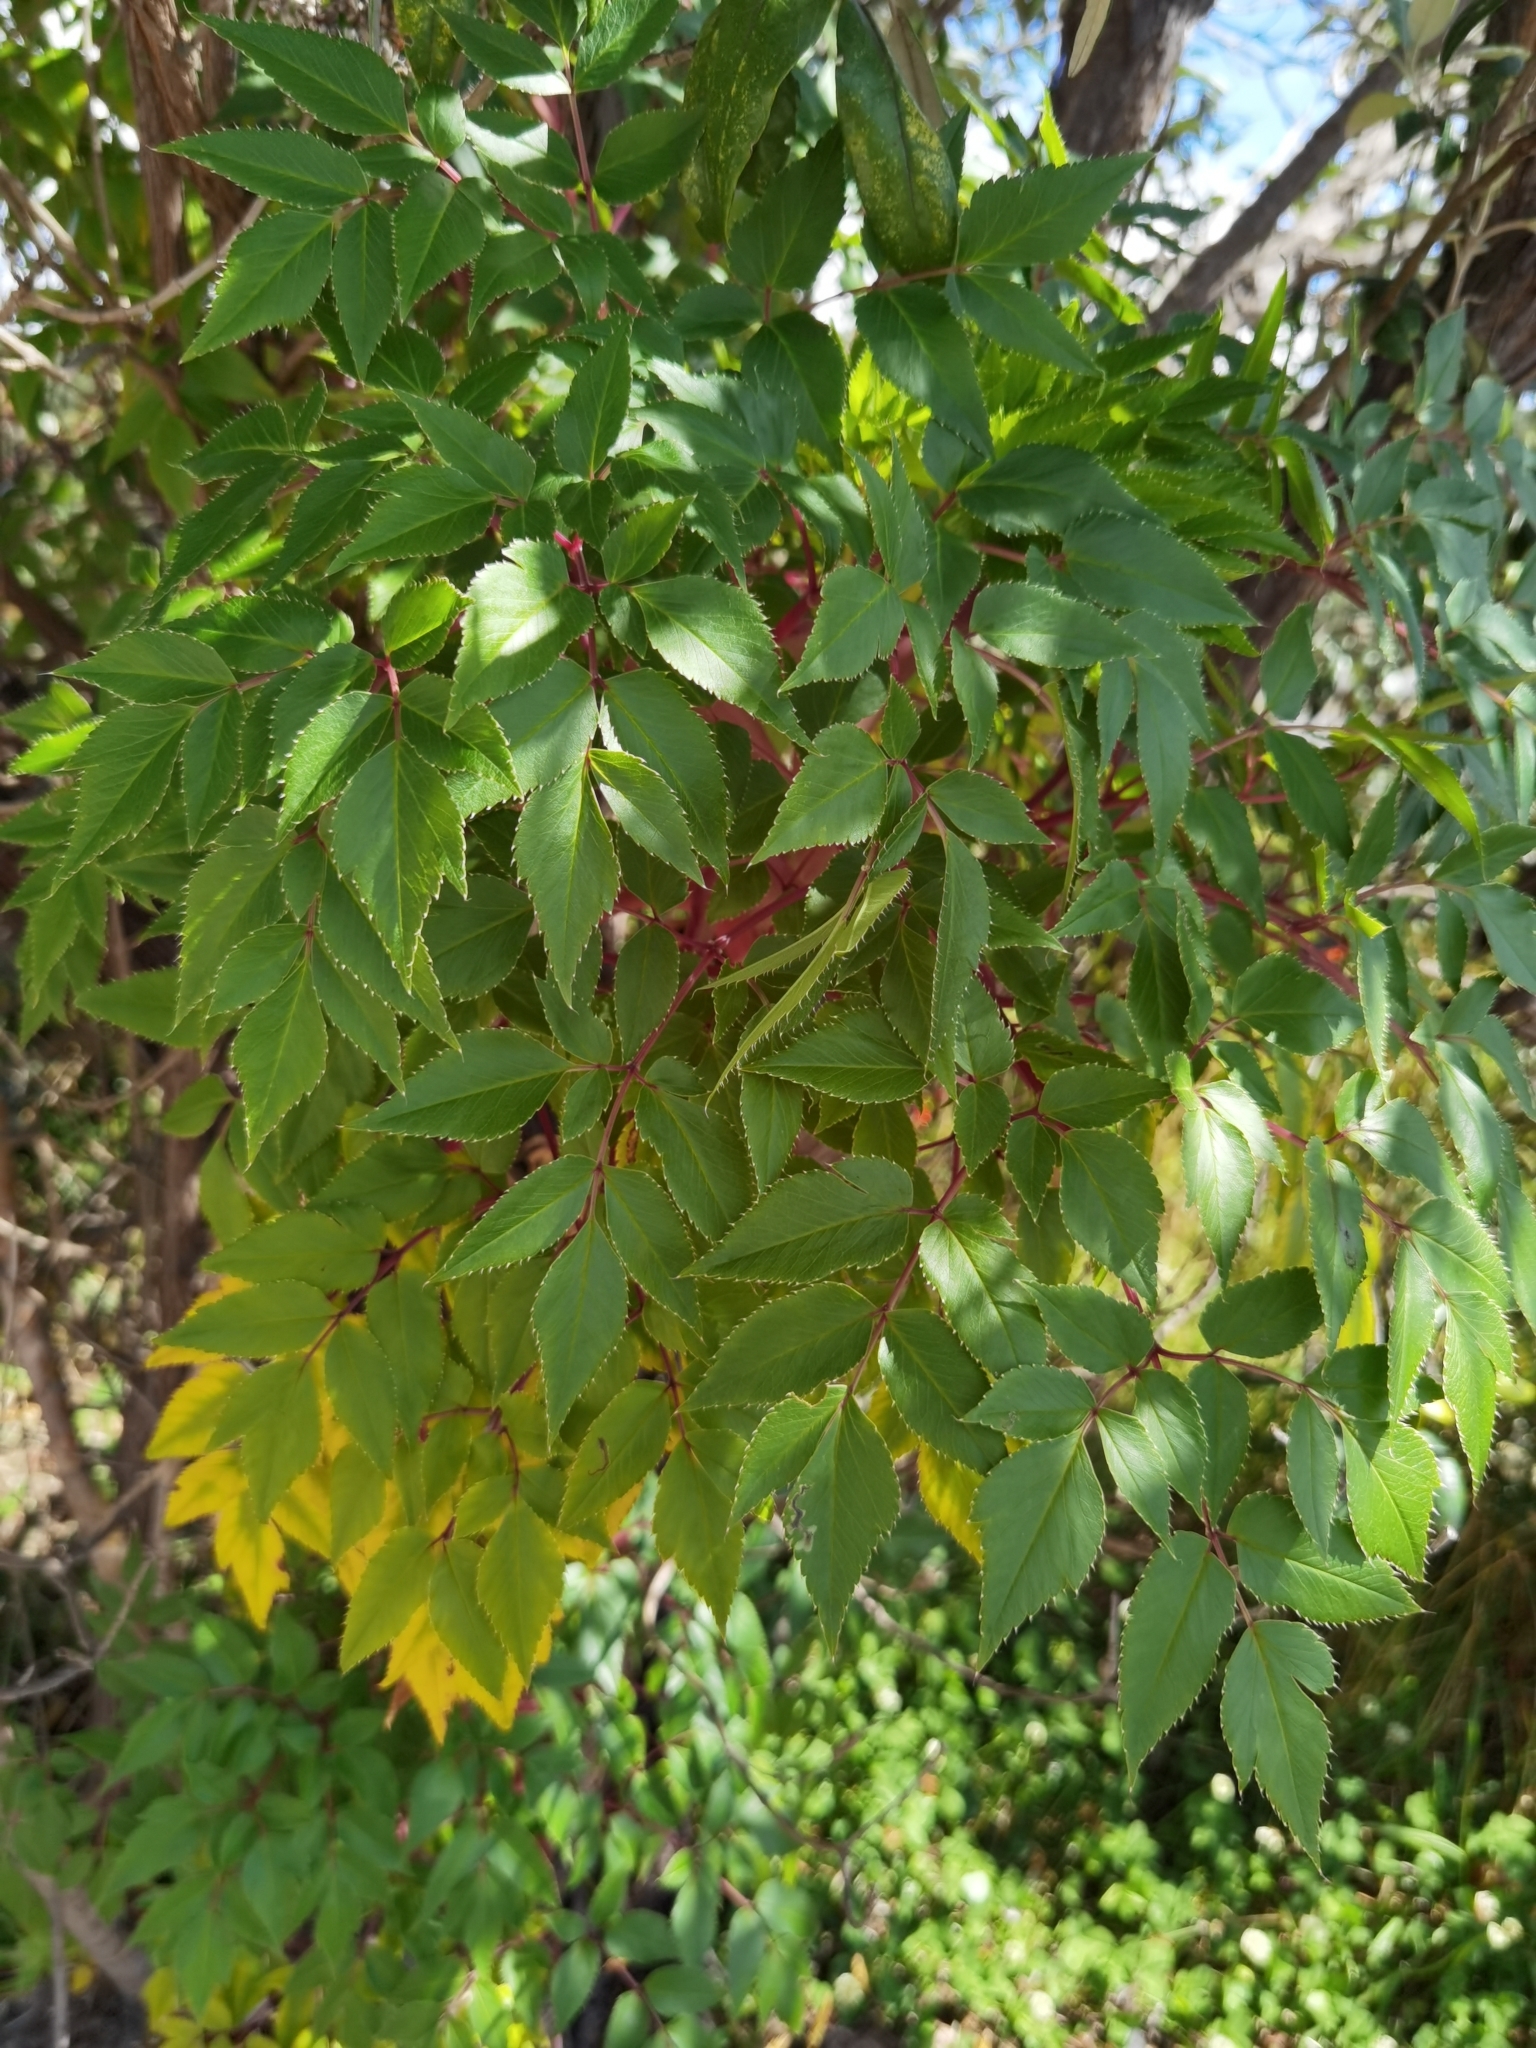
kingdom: Plantae
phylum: Tracheophyta
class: Magnoliopsida
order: Apiales
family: Apiaceae
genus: Myrrhidendron
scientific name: Myrrhidendron donnellsmithii
